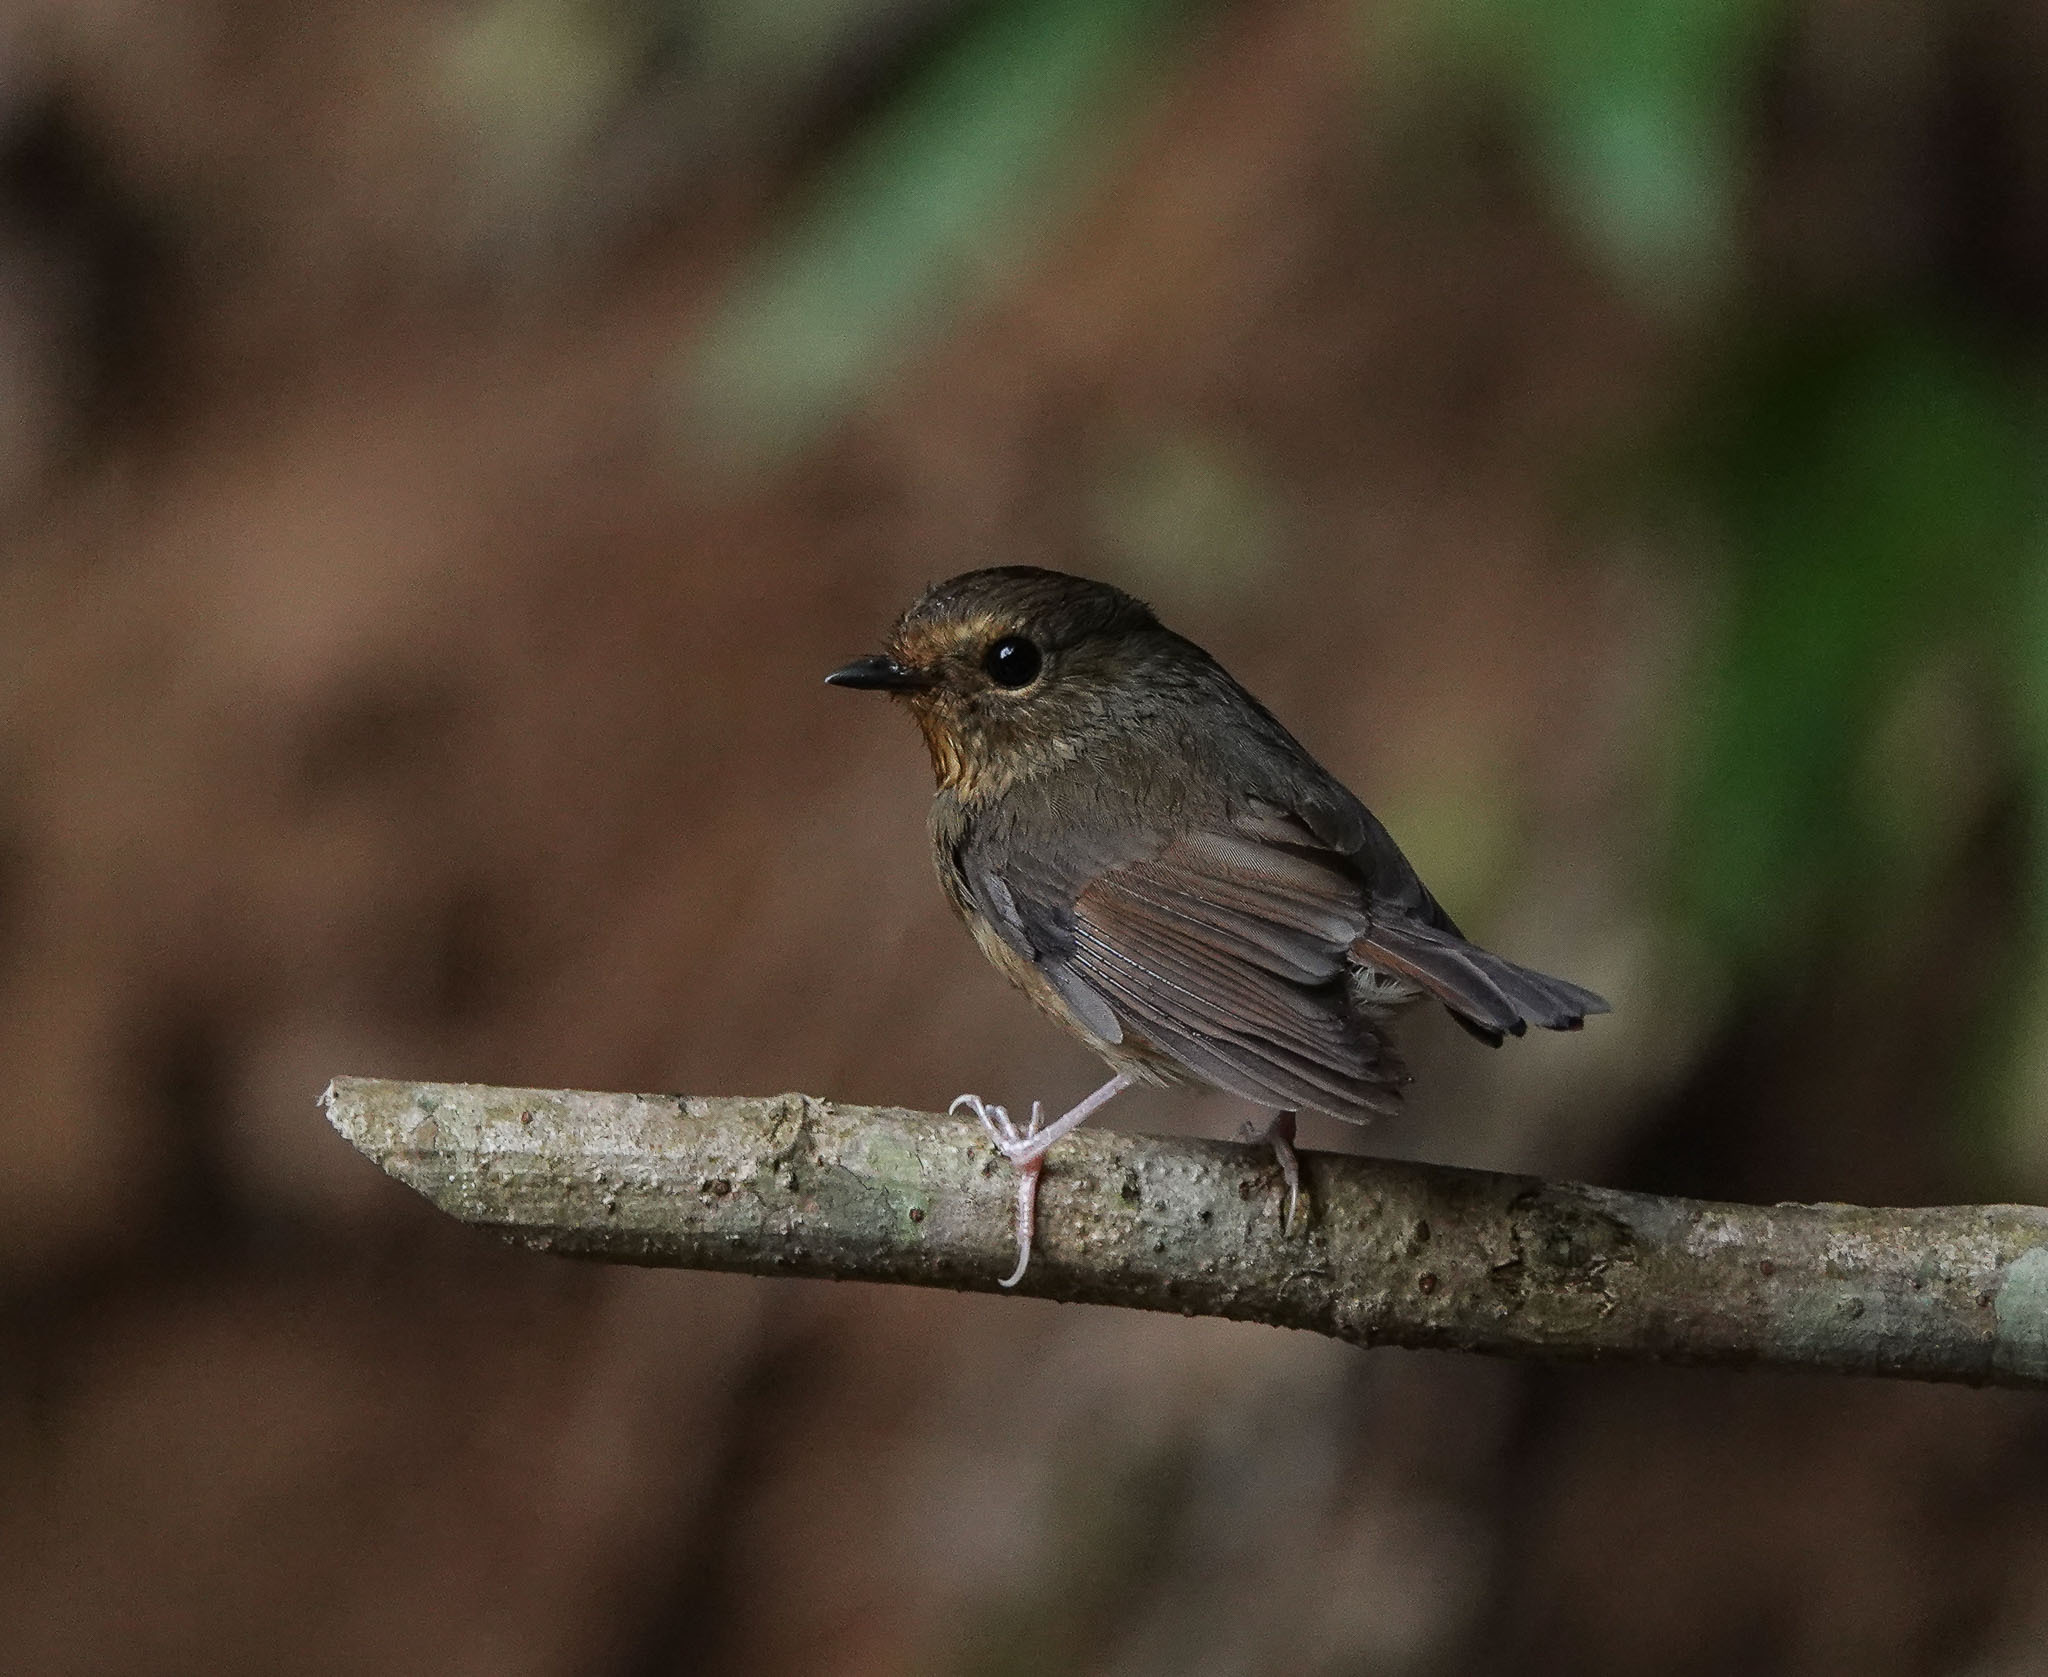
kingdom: Animalia
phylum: Chordata
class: Aves
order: Passeriformes
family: Muscicapidae
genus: Ficedula
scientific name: Ficedula hyperythra
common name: Snowy-browed flycatcher
